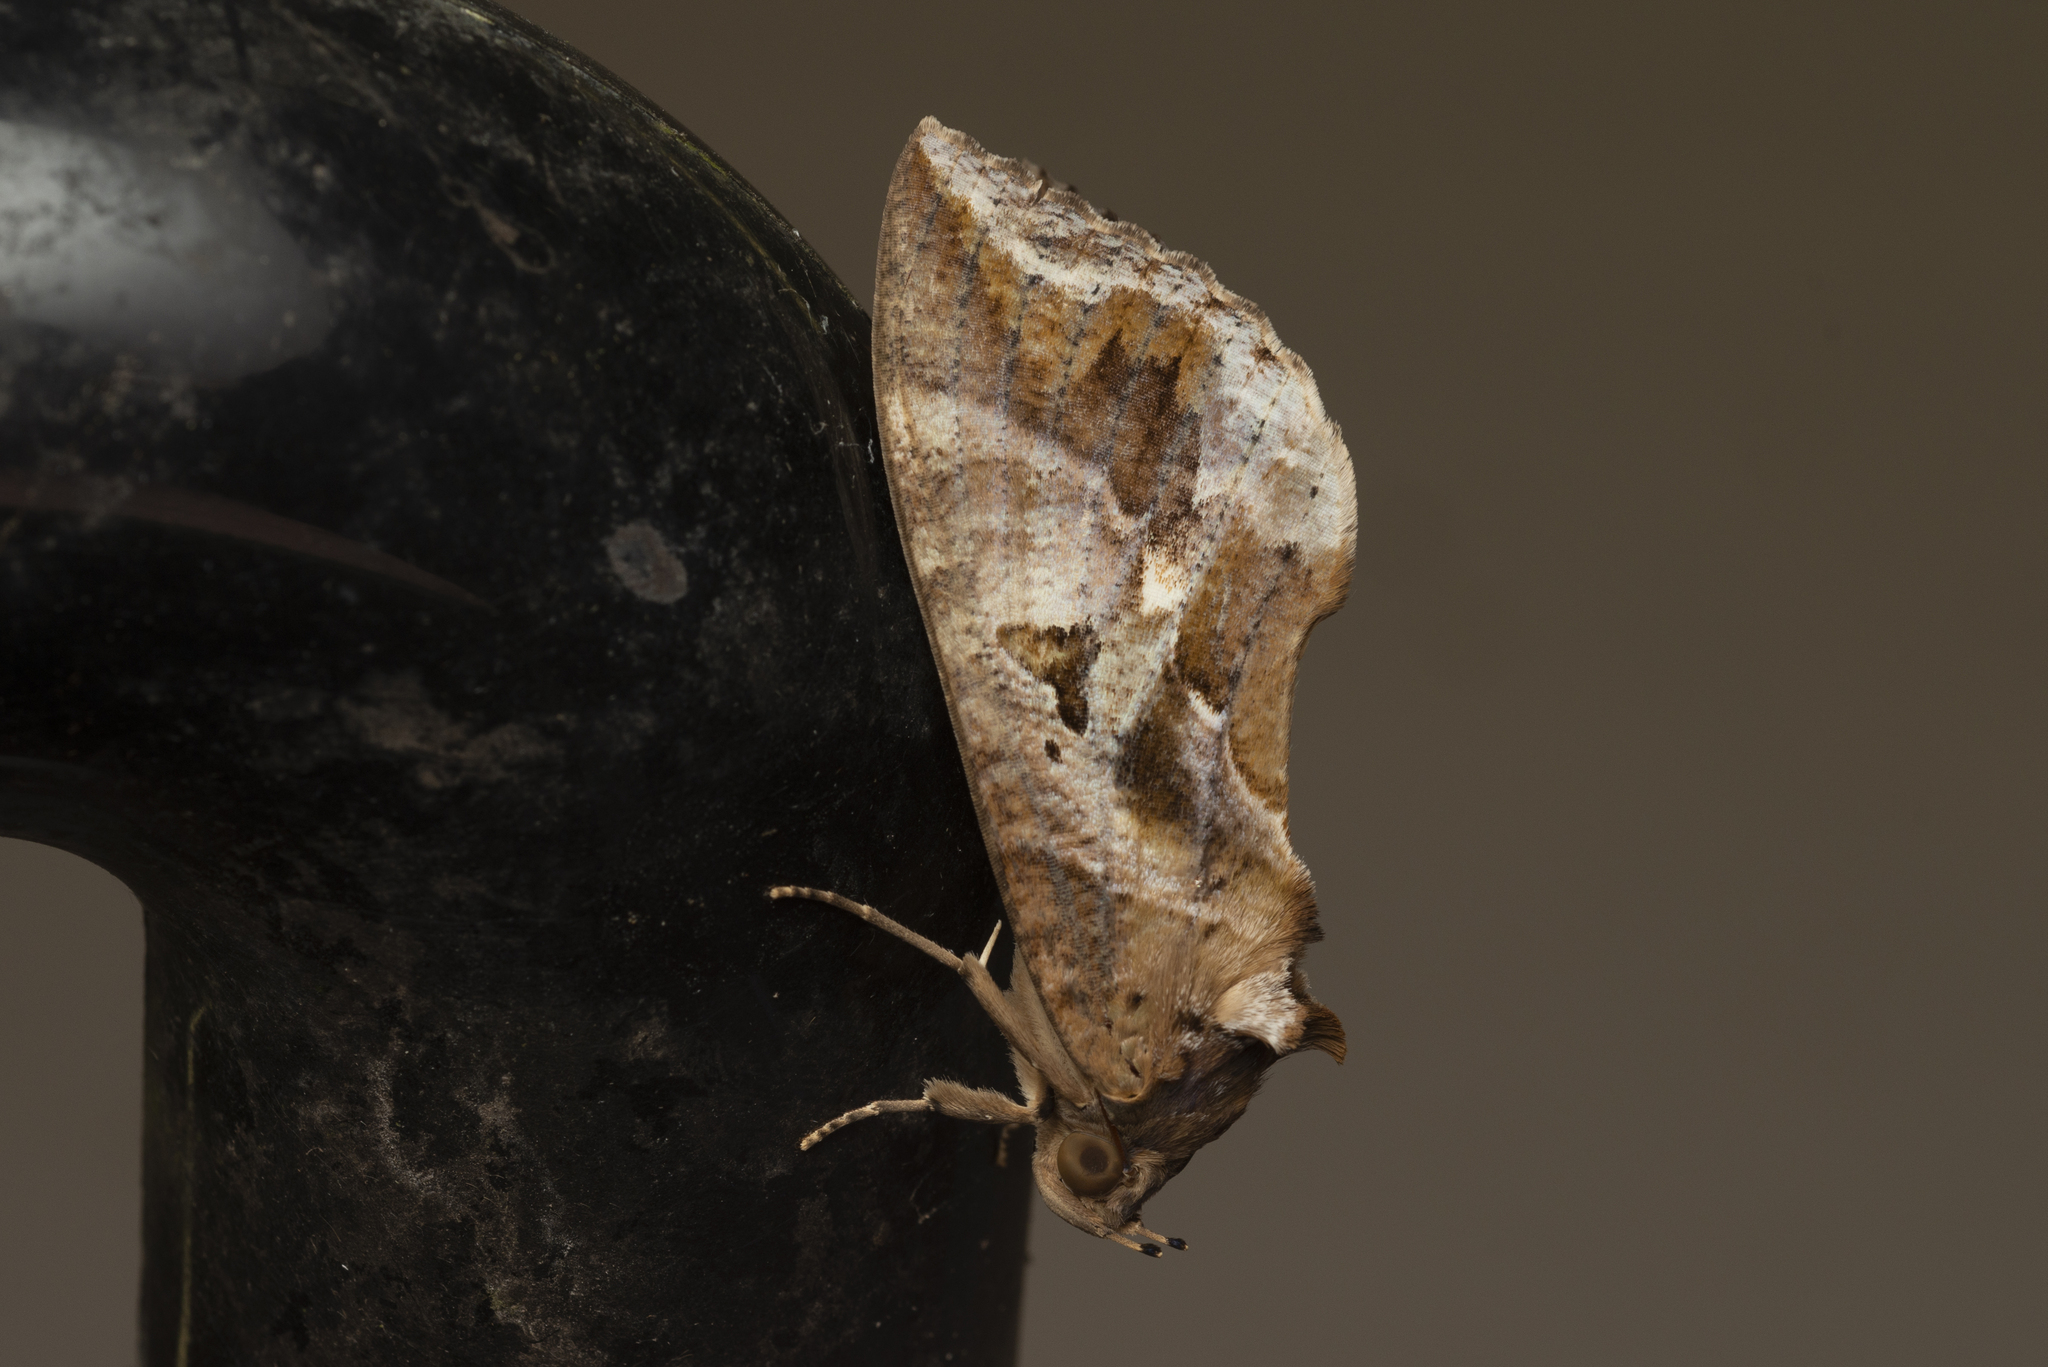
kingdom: Animalia
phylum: Arthropoda
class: Insecta
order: Lepidoptera
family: Erebidae
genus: Eudocima
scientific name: Eudocima phalonia
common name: Wasp
